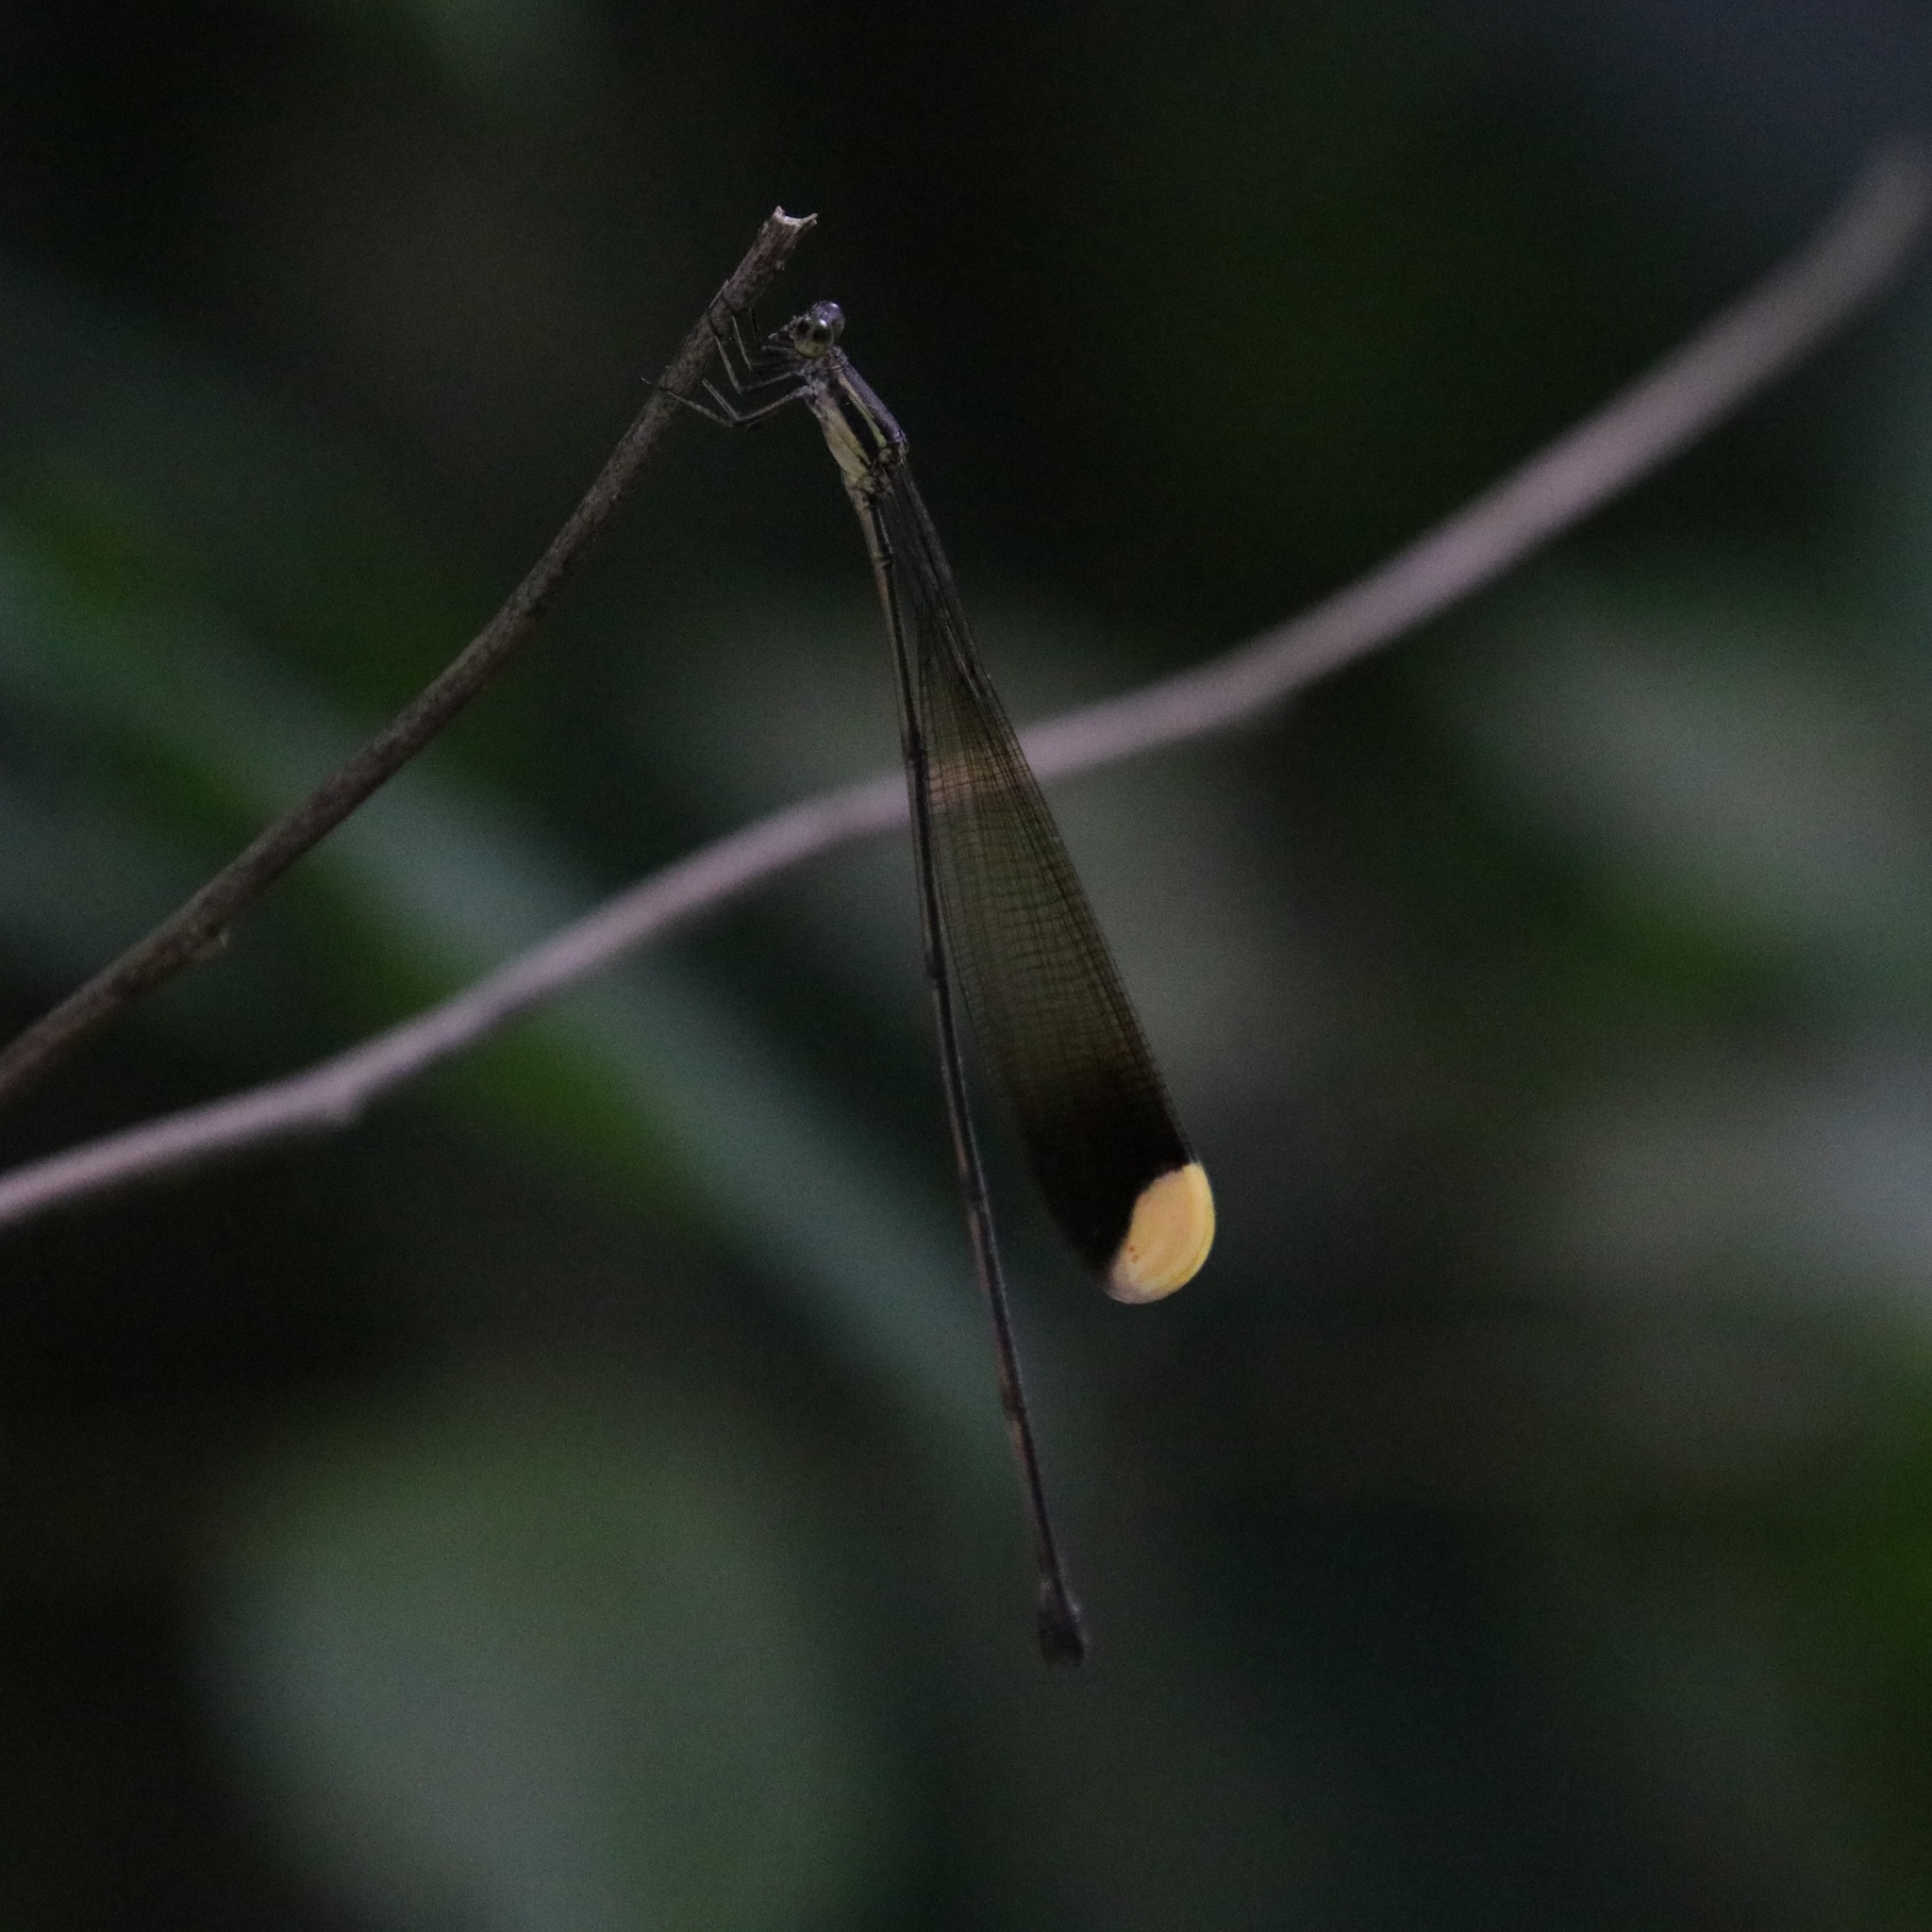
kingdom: Animalia
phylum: Arthropoda
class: Insecta
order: Odonata
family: Coenagrionidae
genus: Mecistogaster
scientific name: Mecistogaster ornata
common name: Ornate helicopter
